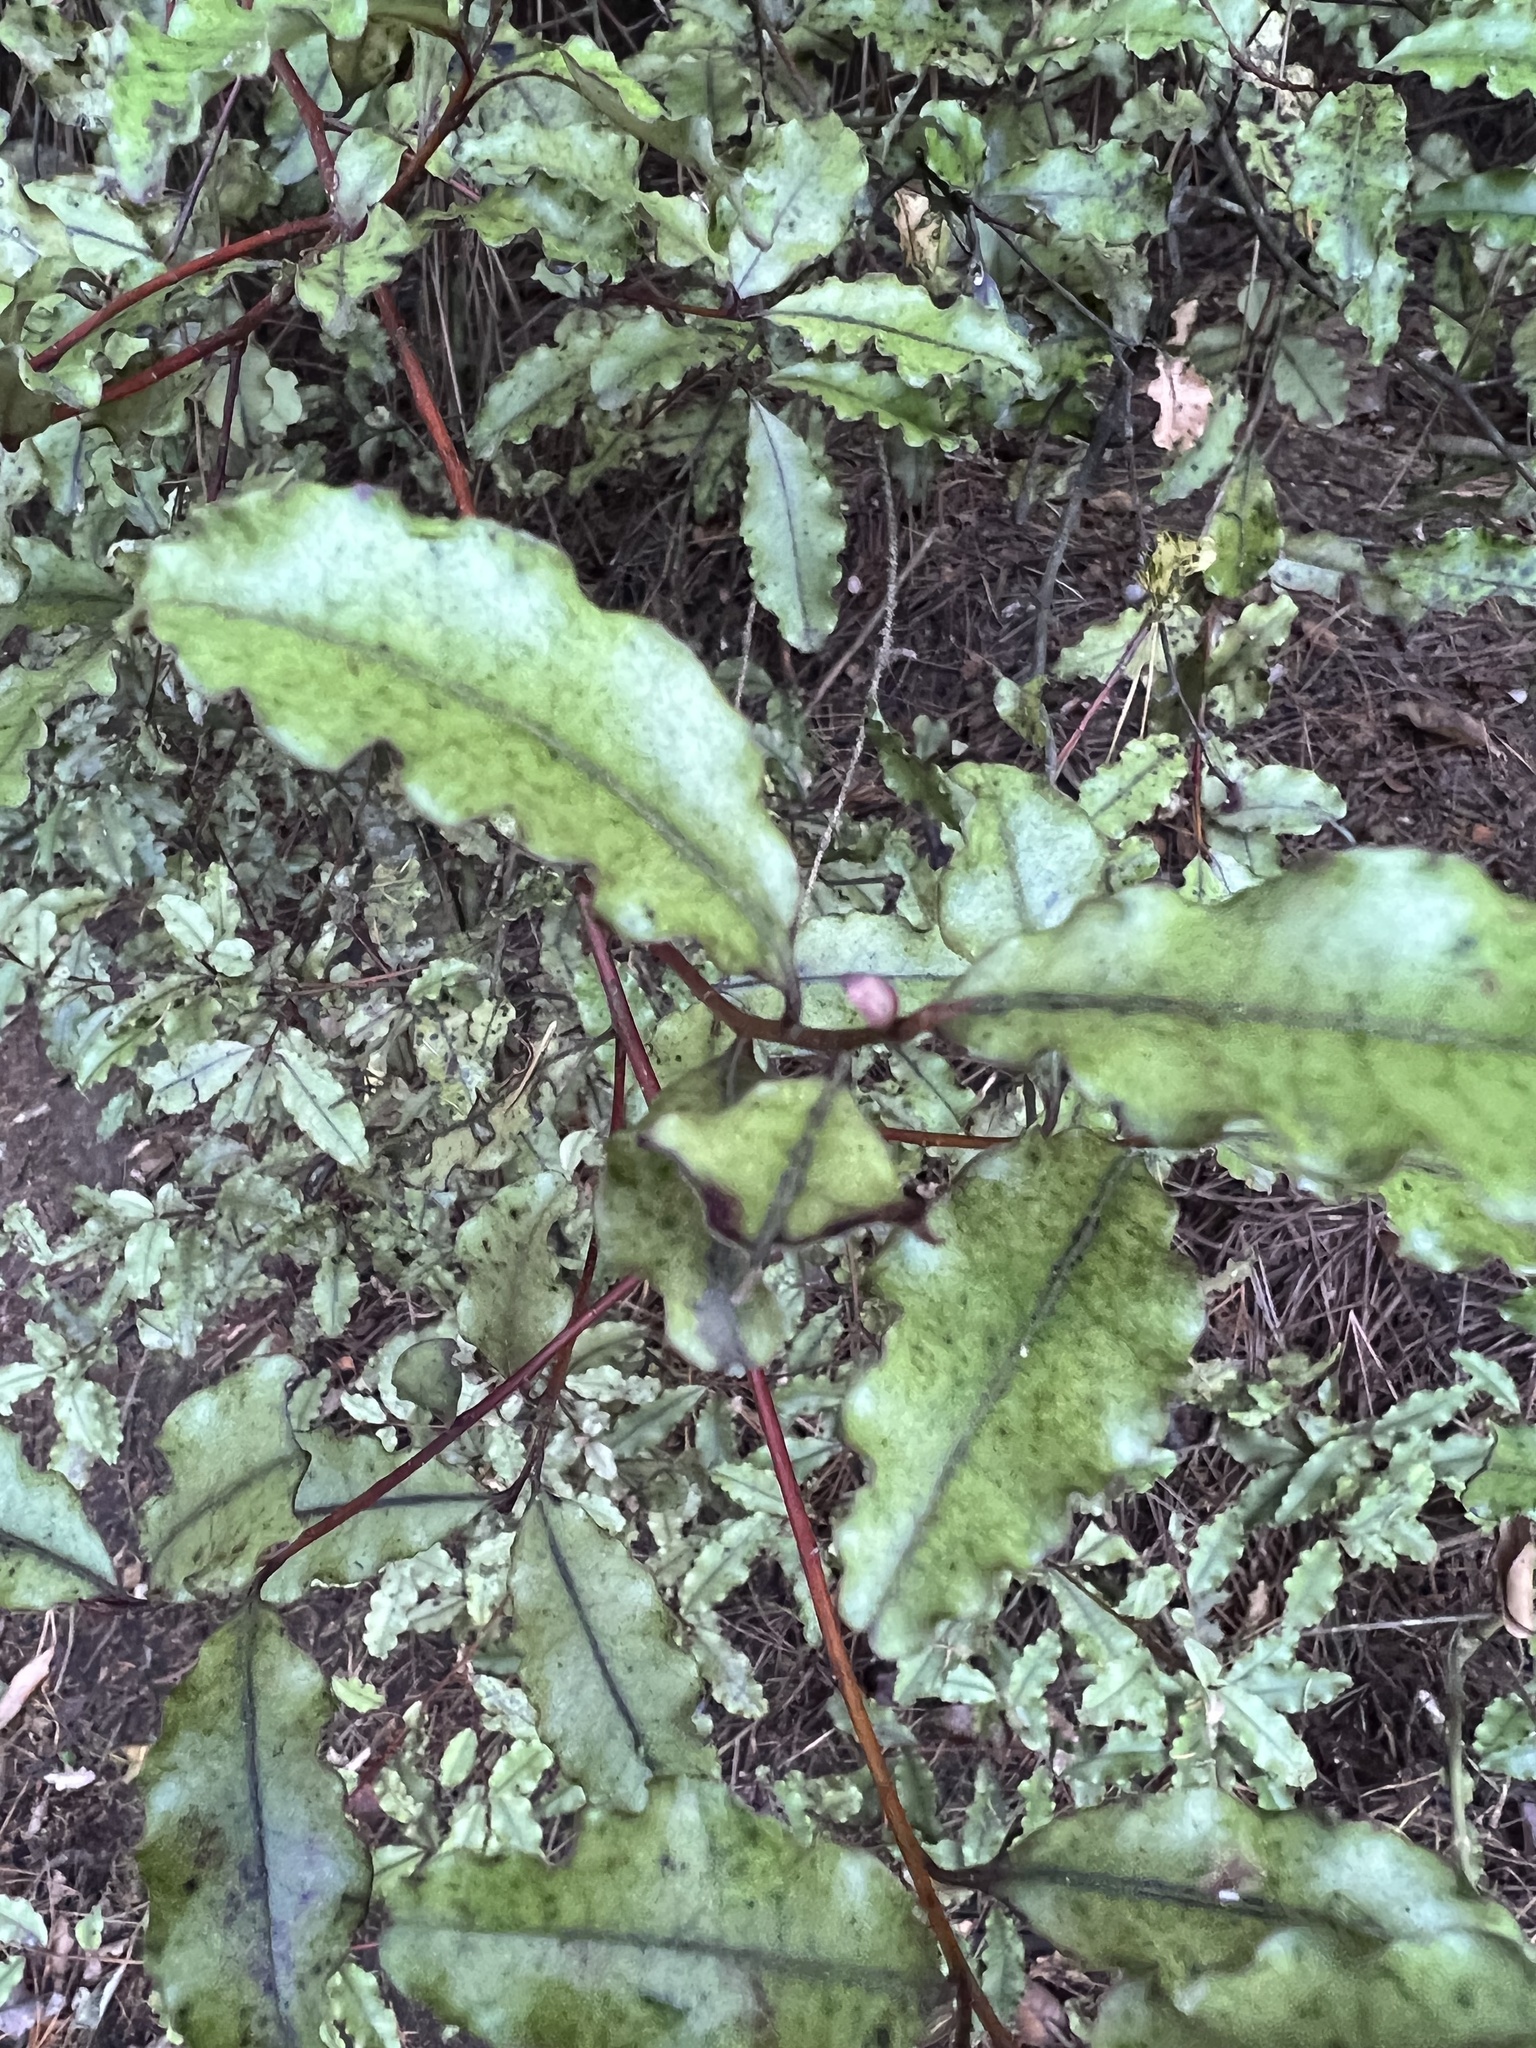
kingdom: Plantae
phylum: Tracheophyta
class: Magnoliopsida
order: Ericales
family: Primulaceae
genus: Myrsine
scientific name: Myrsine australis
